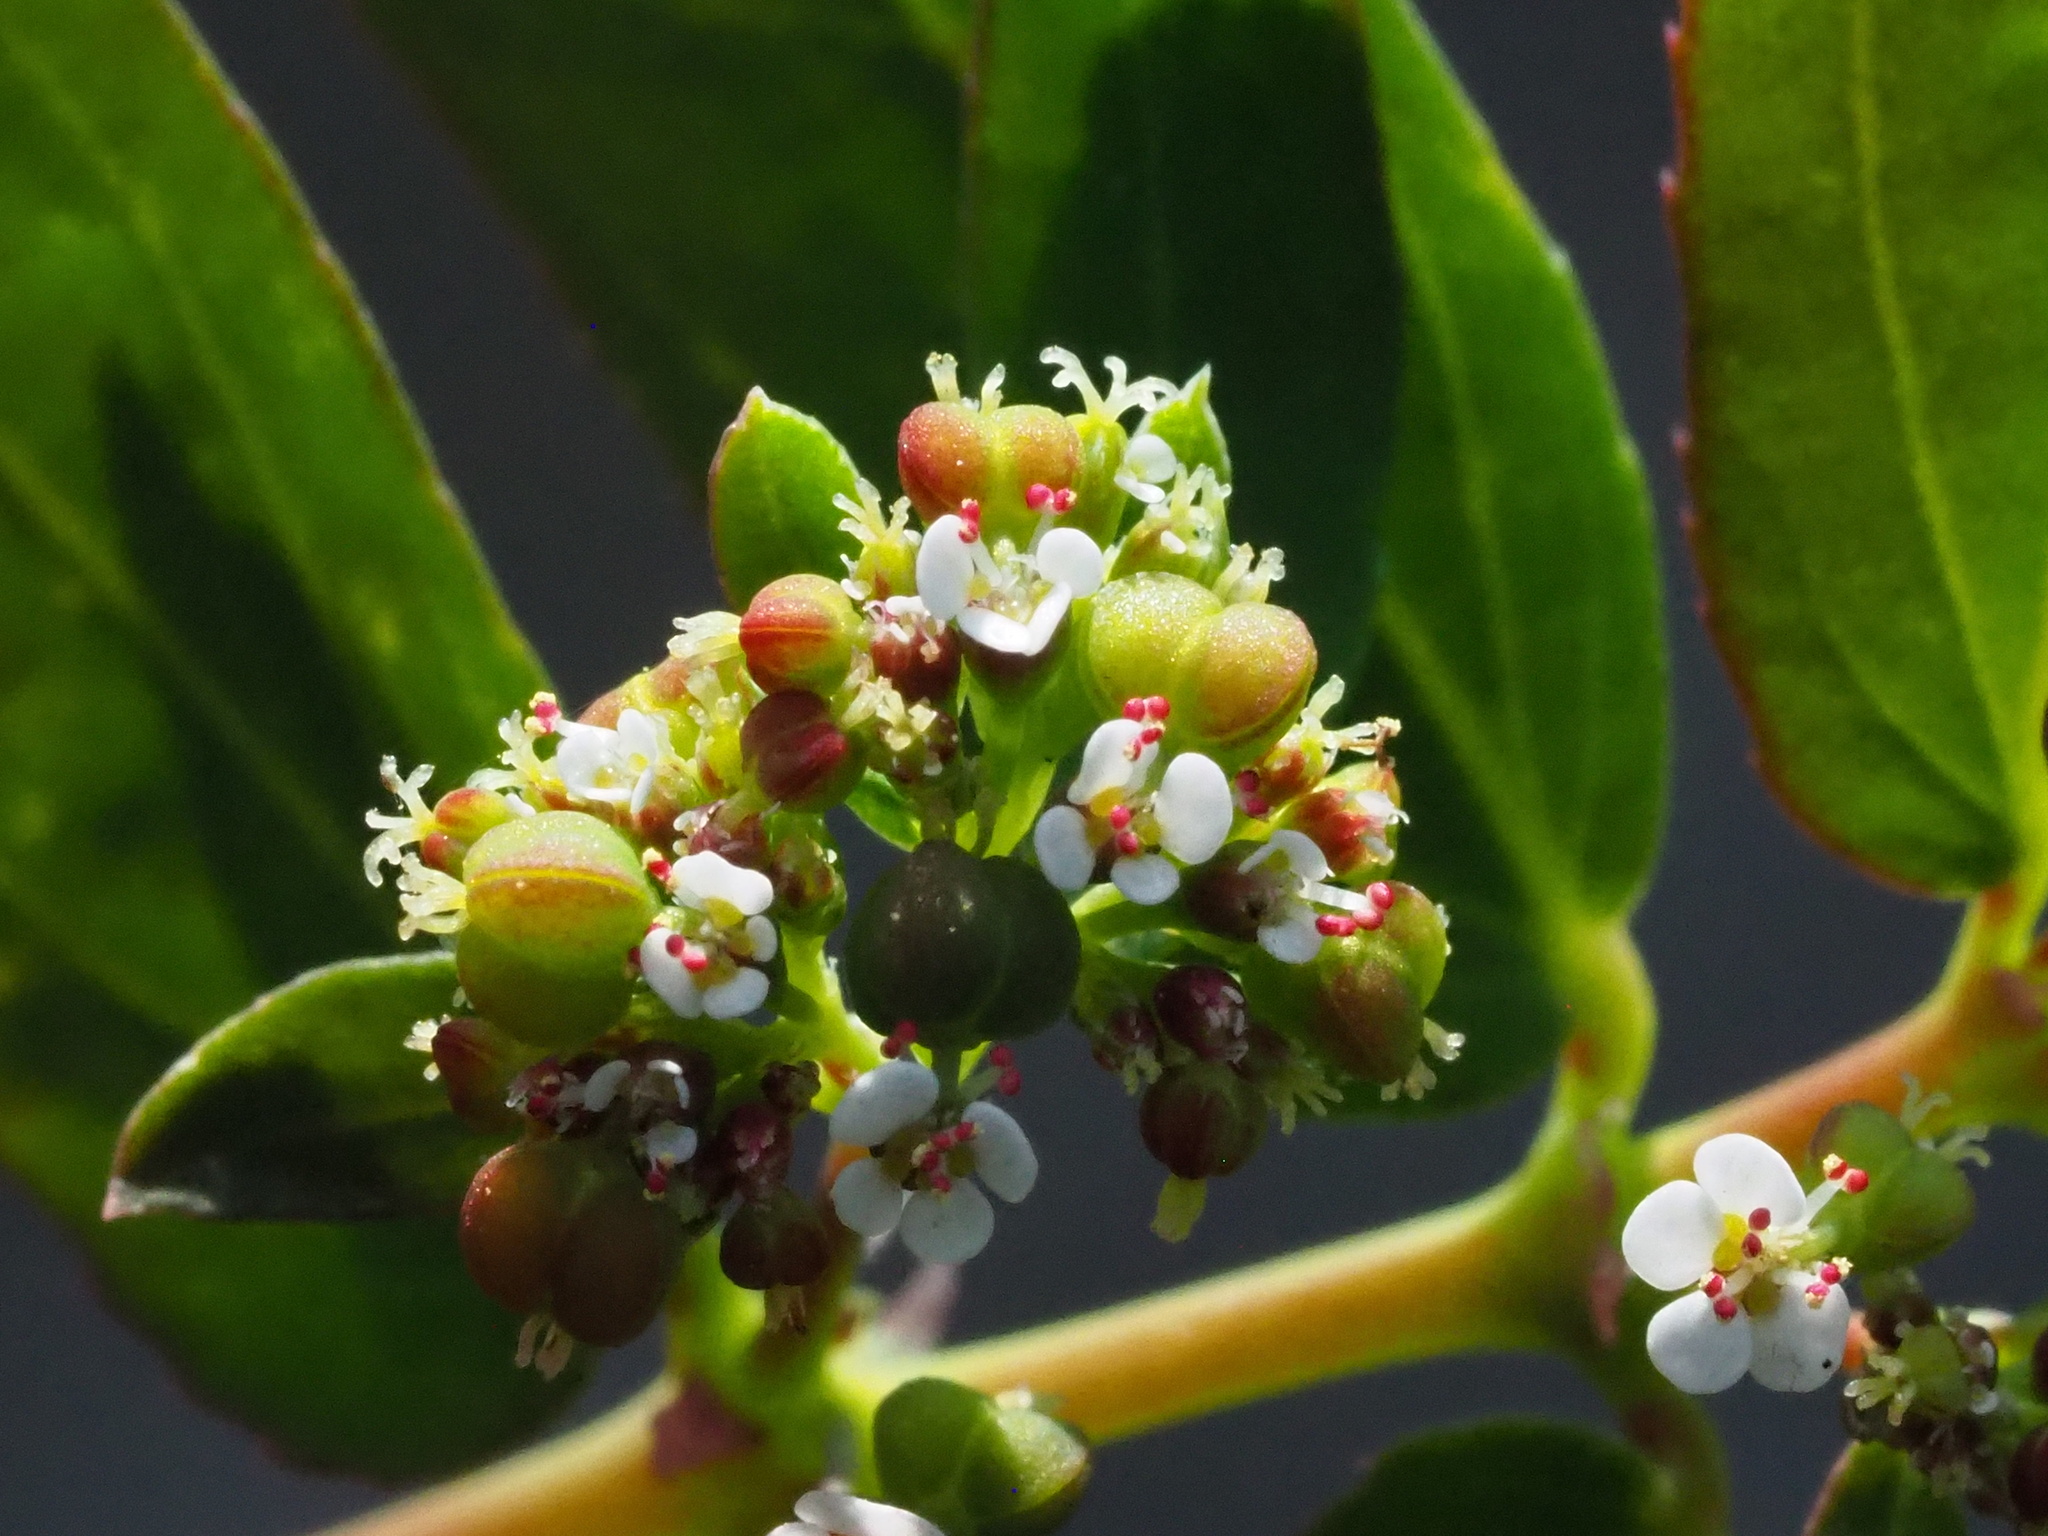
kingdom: Plantae
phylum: Tracheophyta
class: Magnoliopsida
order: Malpighiales
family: Euphorbiaceae
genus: Euphorbia
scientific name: Euphorbia hypericifolia
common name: Graceful sandmat
